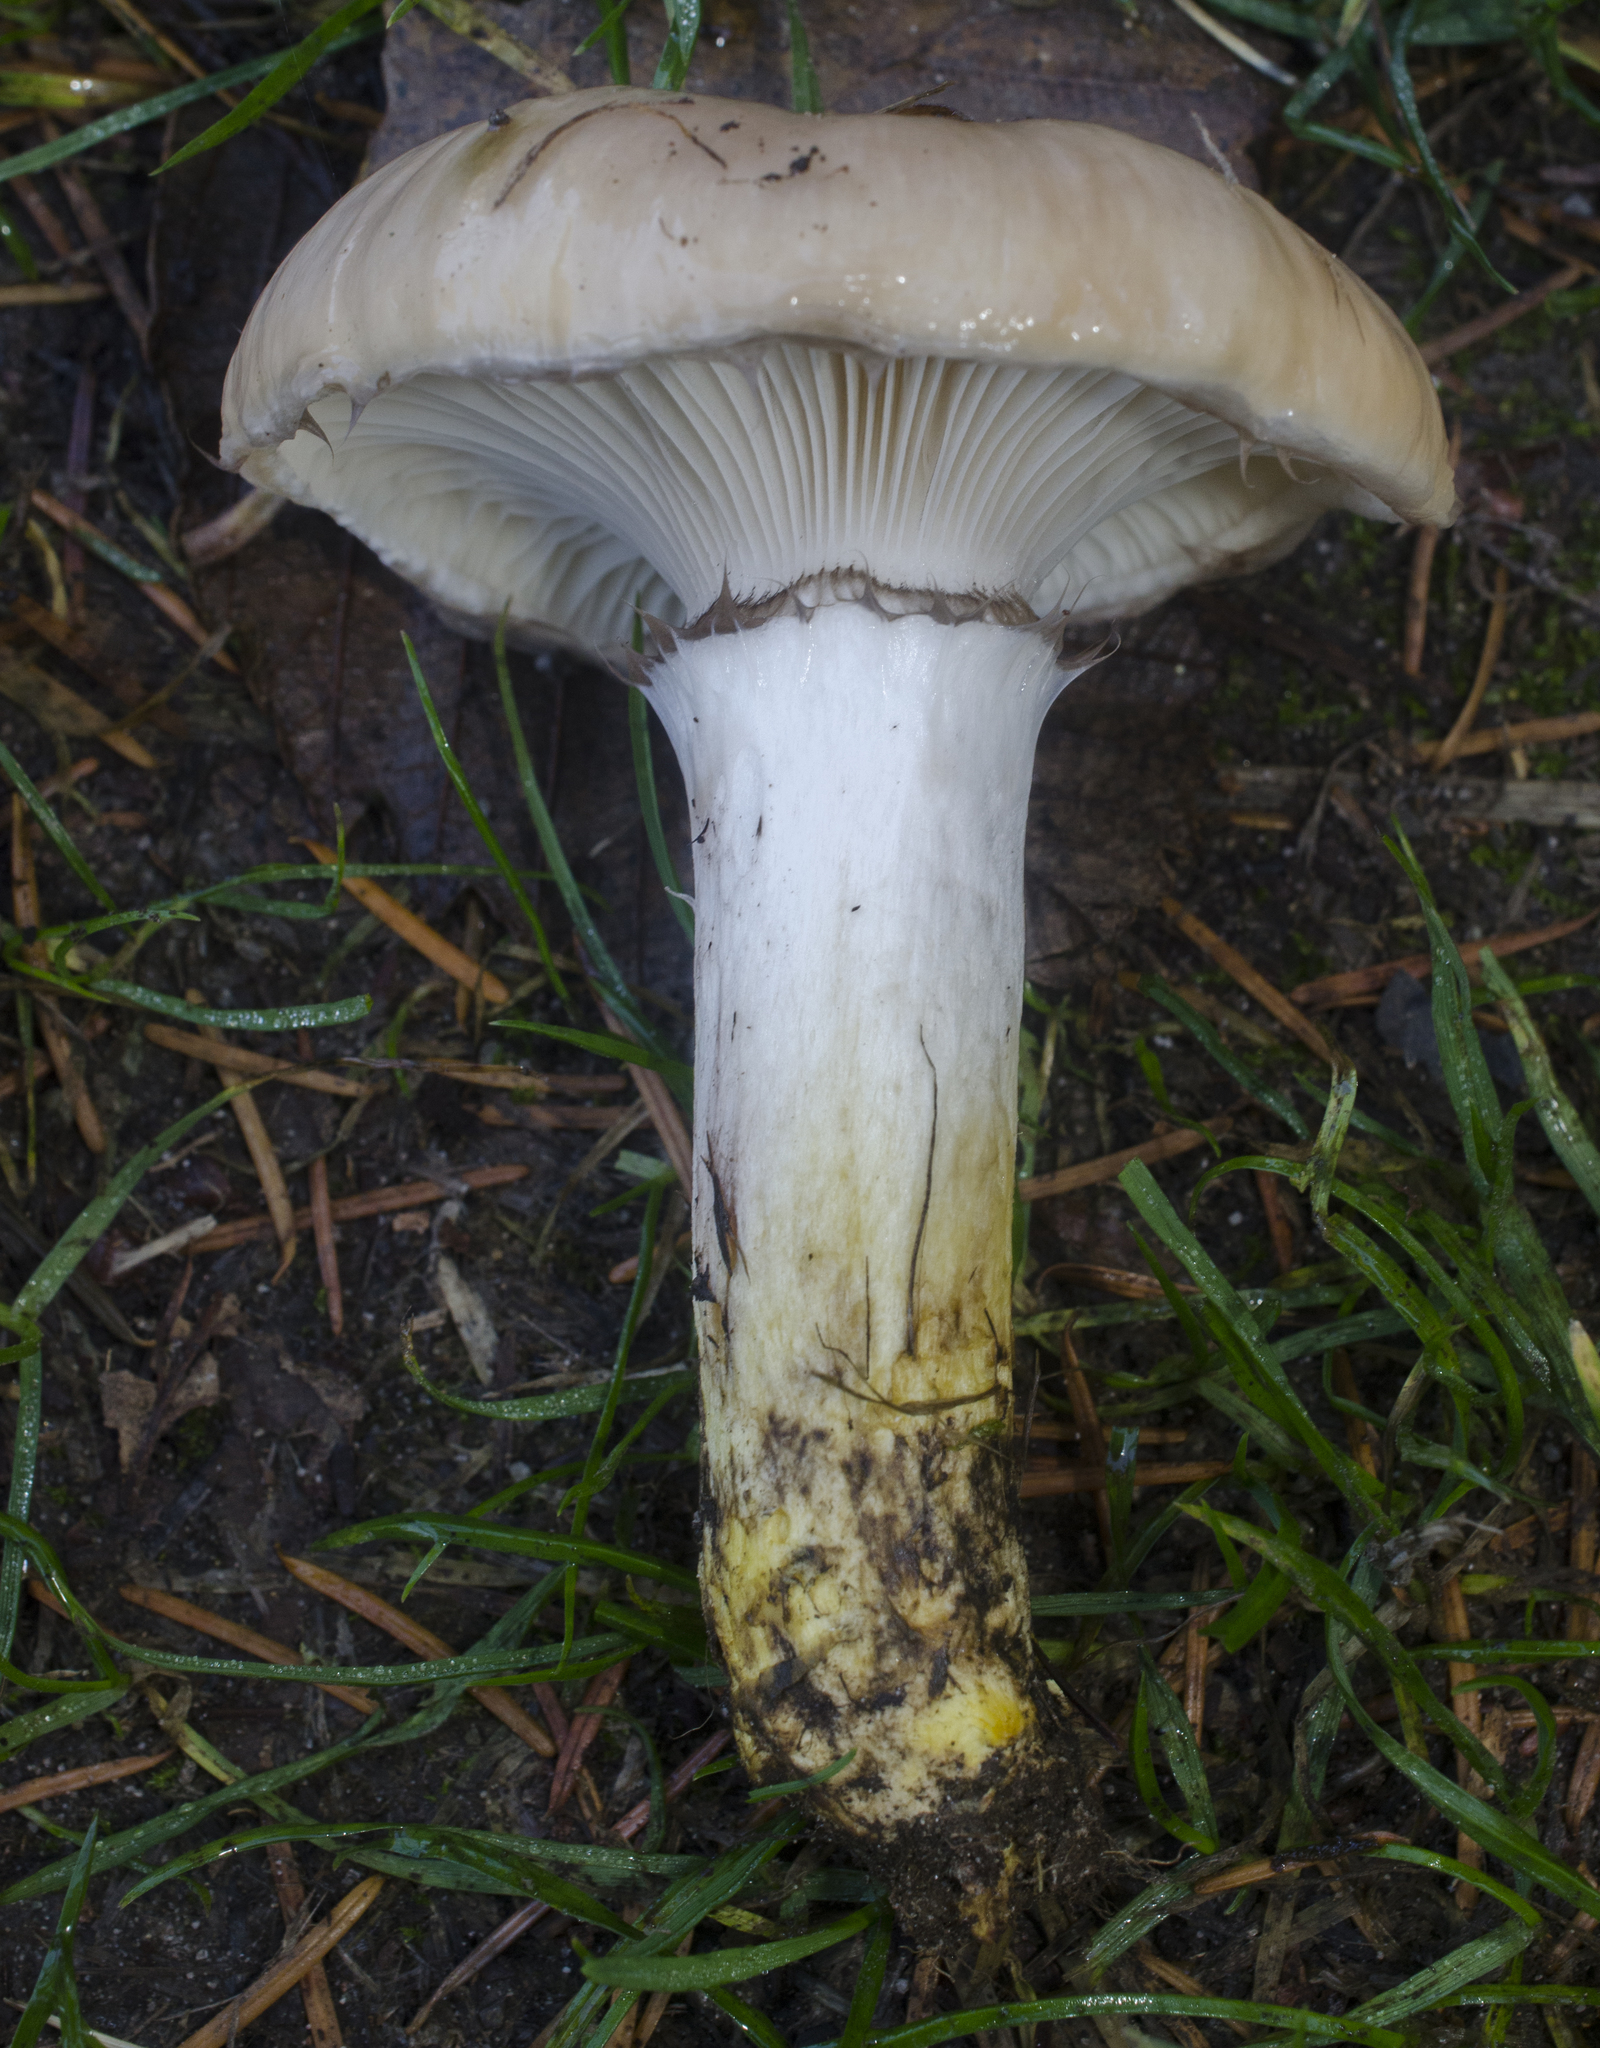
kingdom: Fungi
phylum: Basidiomycota
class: Agaricomycetes
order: Boletales
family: Gomphidiaceae
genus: Gomphidius
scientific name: Gomphidius oregonensis
